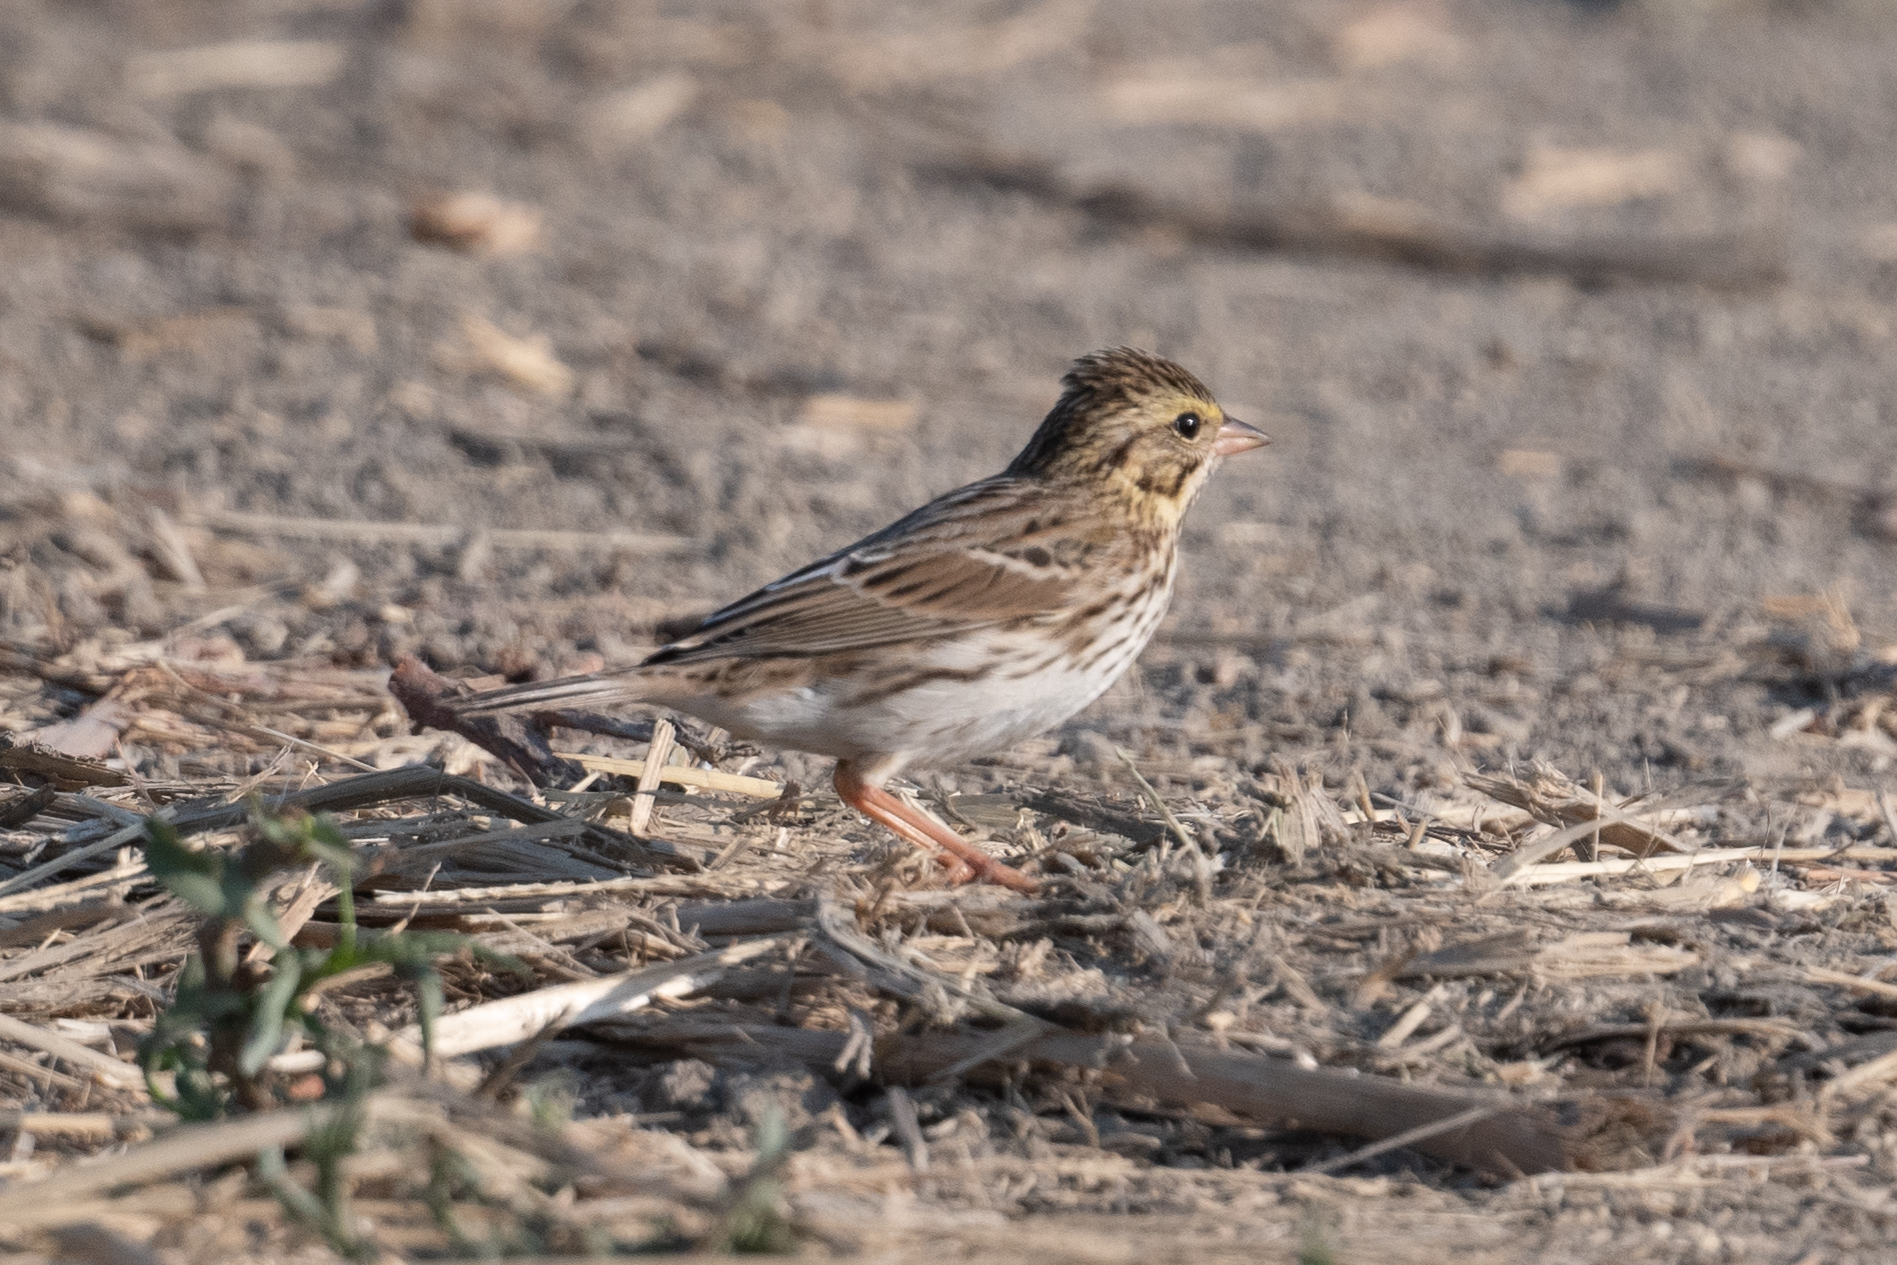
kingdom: Animalia
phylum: Chordata
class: Aves
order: Passeriformes
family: Passerellidae
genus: Passerculus
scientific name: Passerculus sandwichensis
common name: Savannah sparrow
